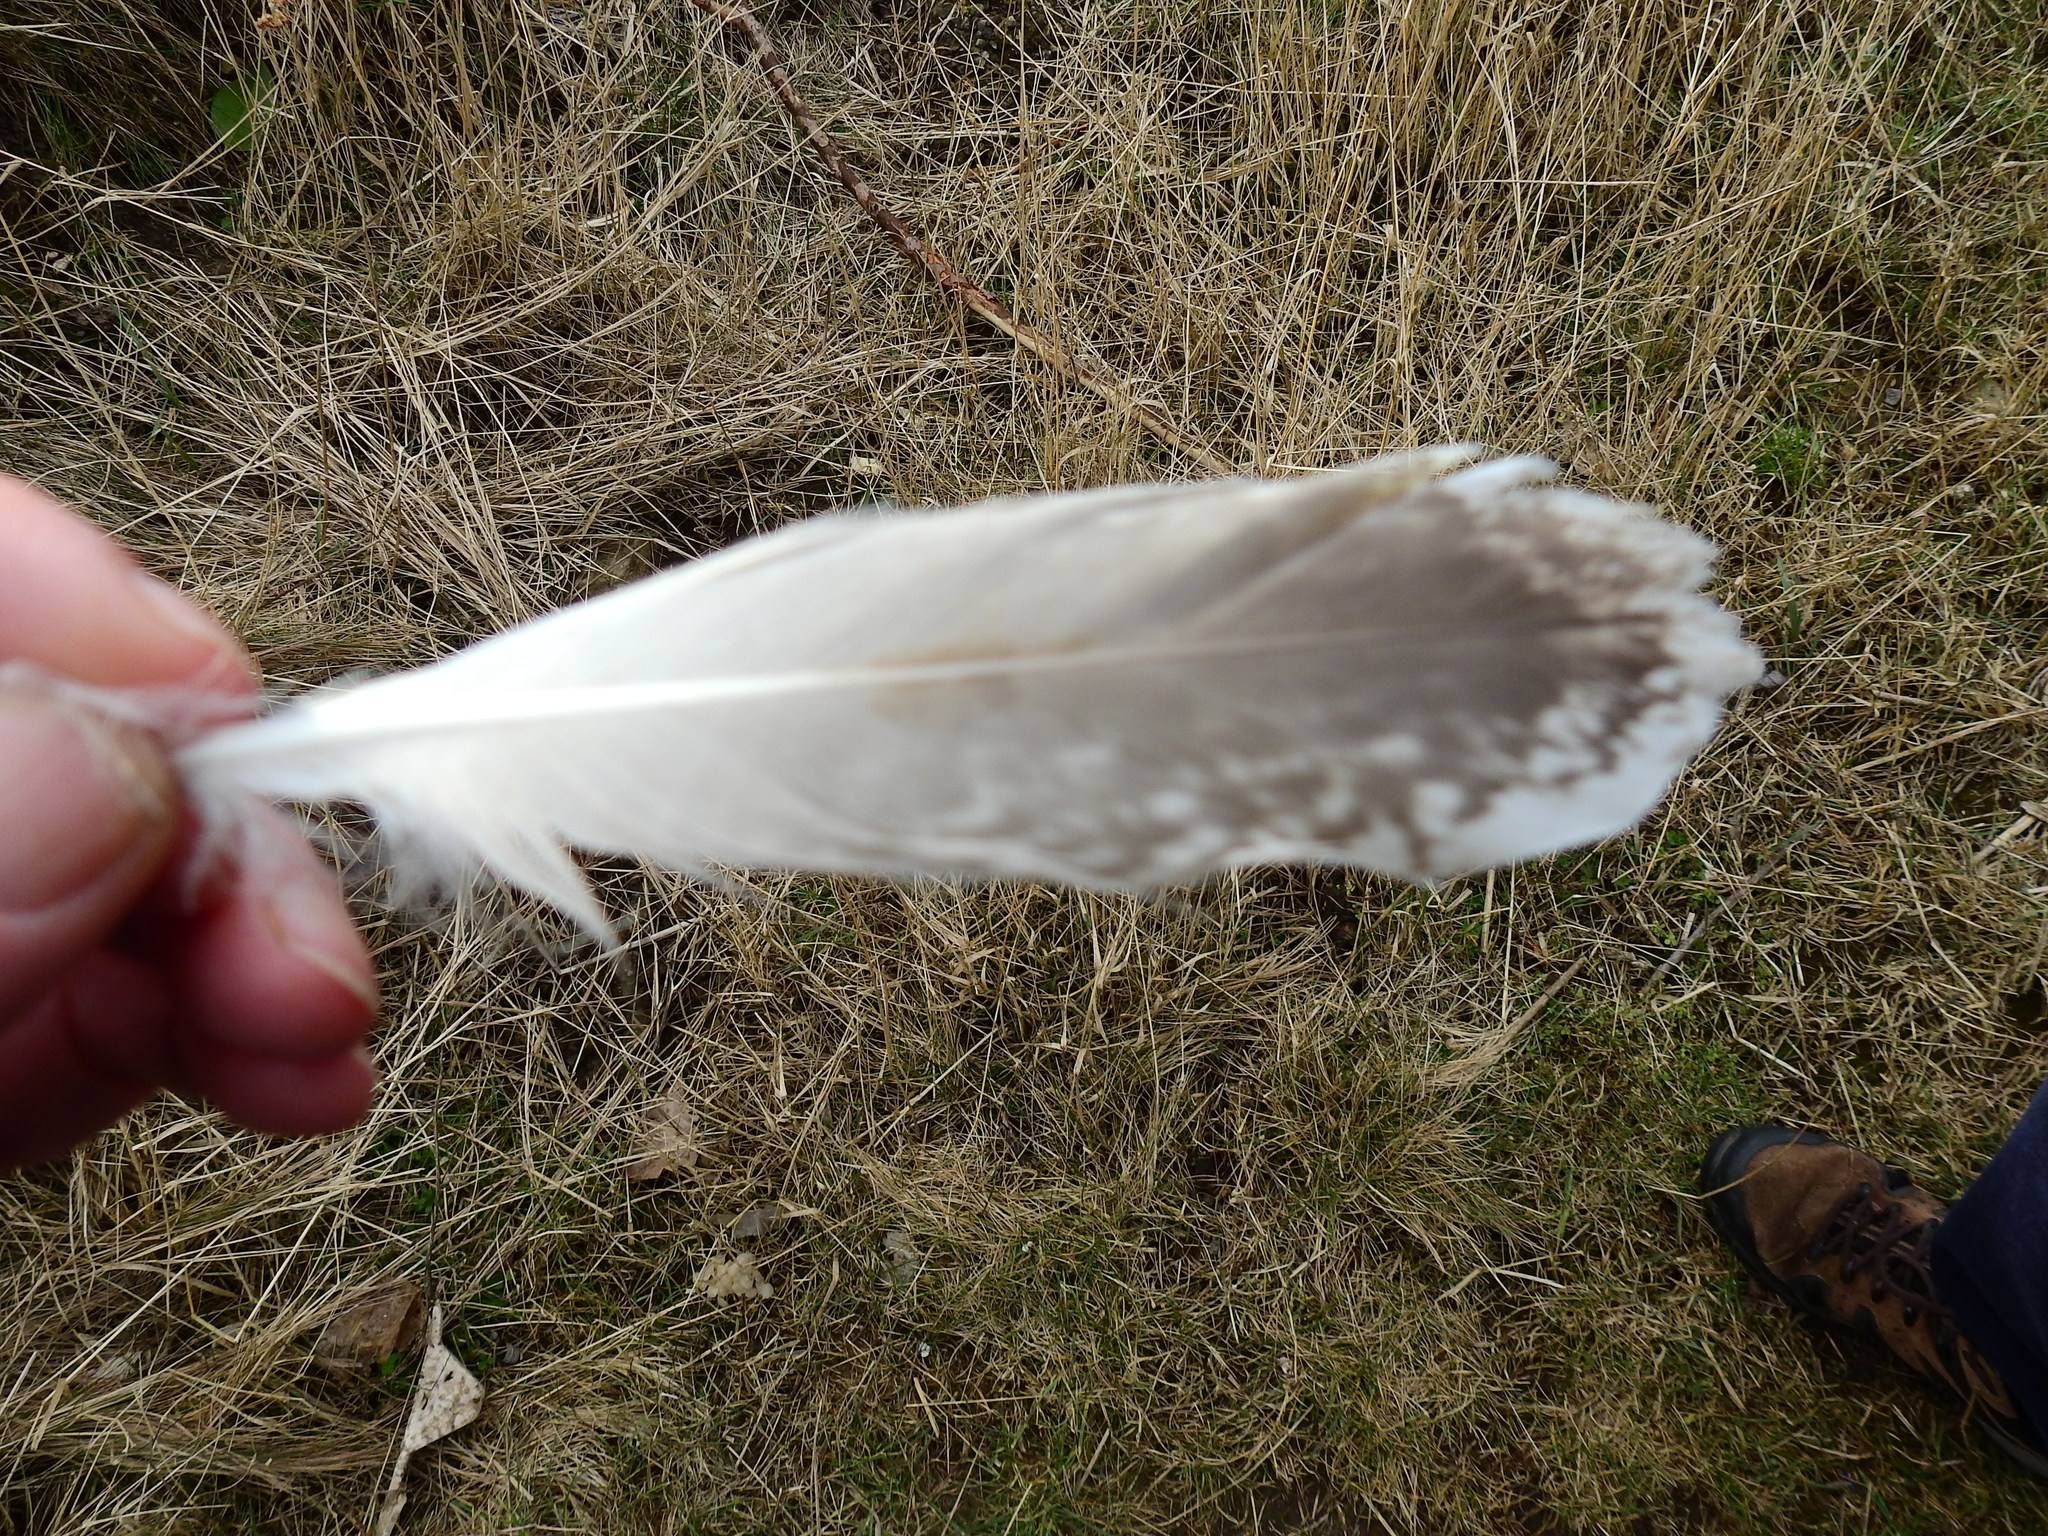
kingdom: Animalia
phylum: Chordata
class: Aves
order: Charadriiformes
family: Laridae
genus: Larus
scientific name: Larus argentatus
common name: Herring gull
